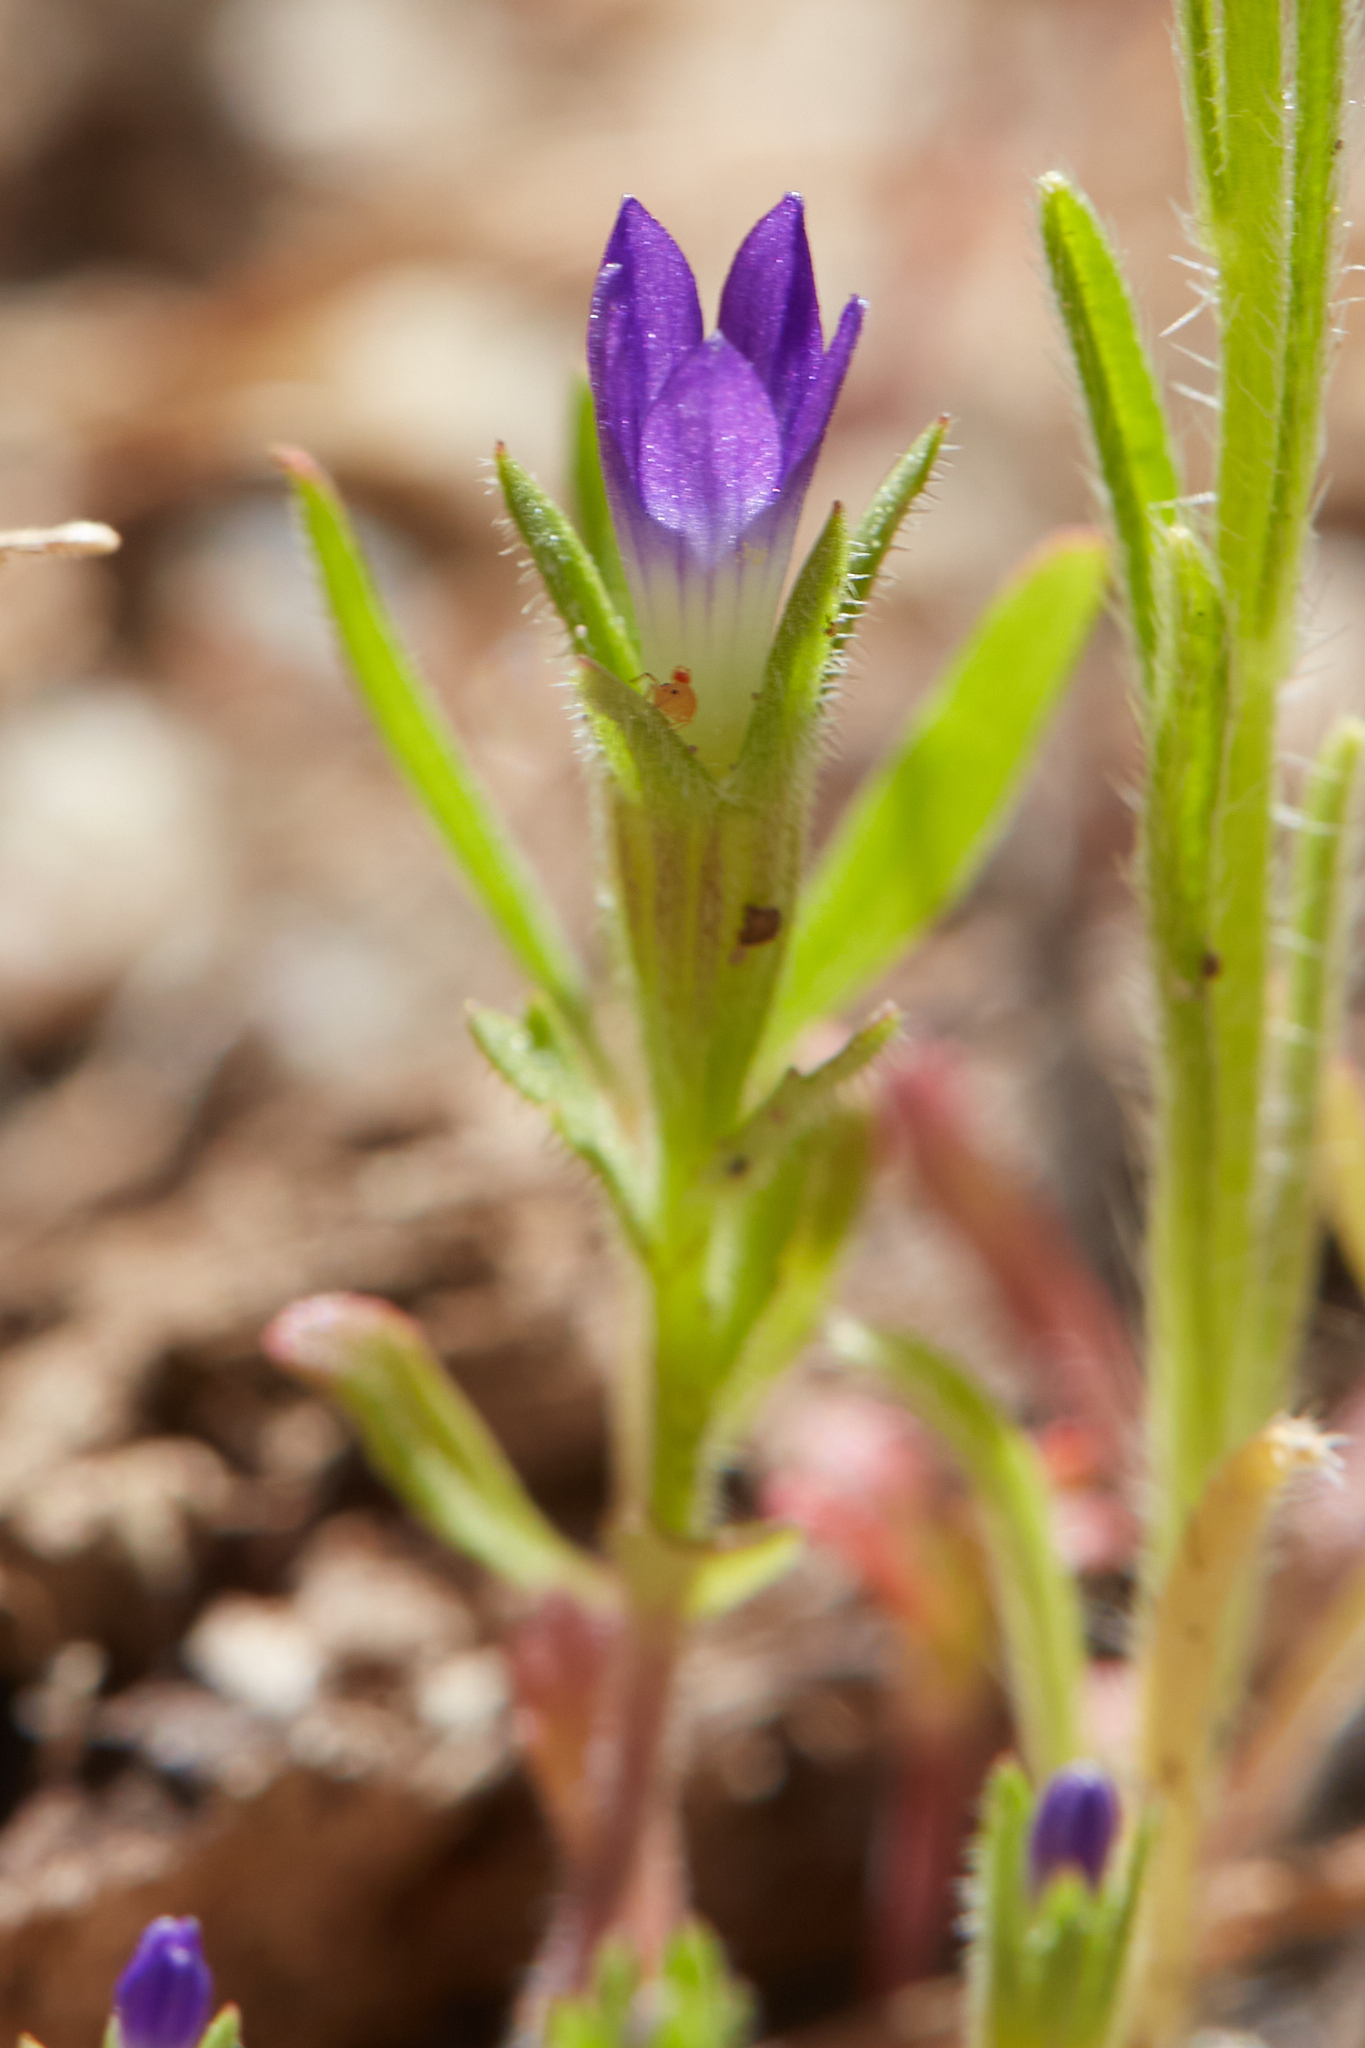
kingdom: Plantae
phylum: Tracheophyta
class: Magnoliopsida
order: Asterales
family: Campanulaceae
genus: Githopsis
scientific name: Githopsis specularioides
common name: Common bluecup
